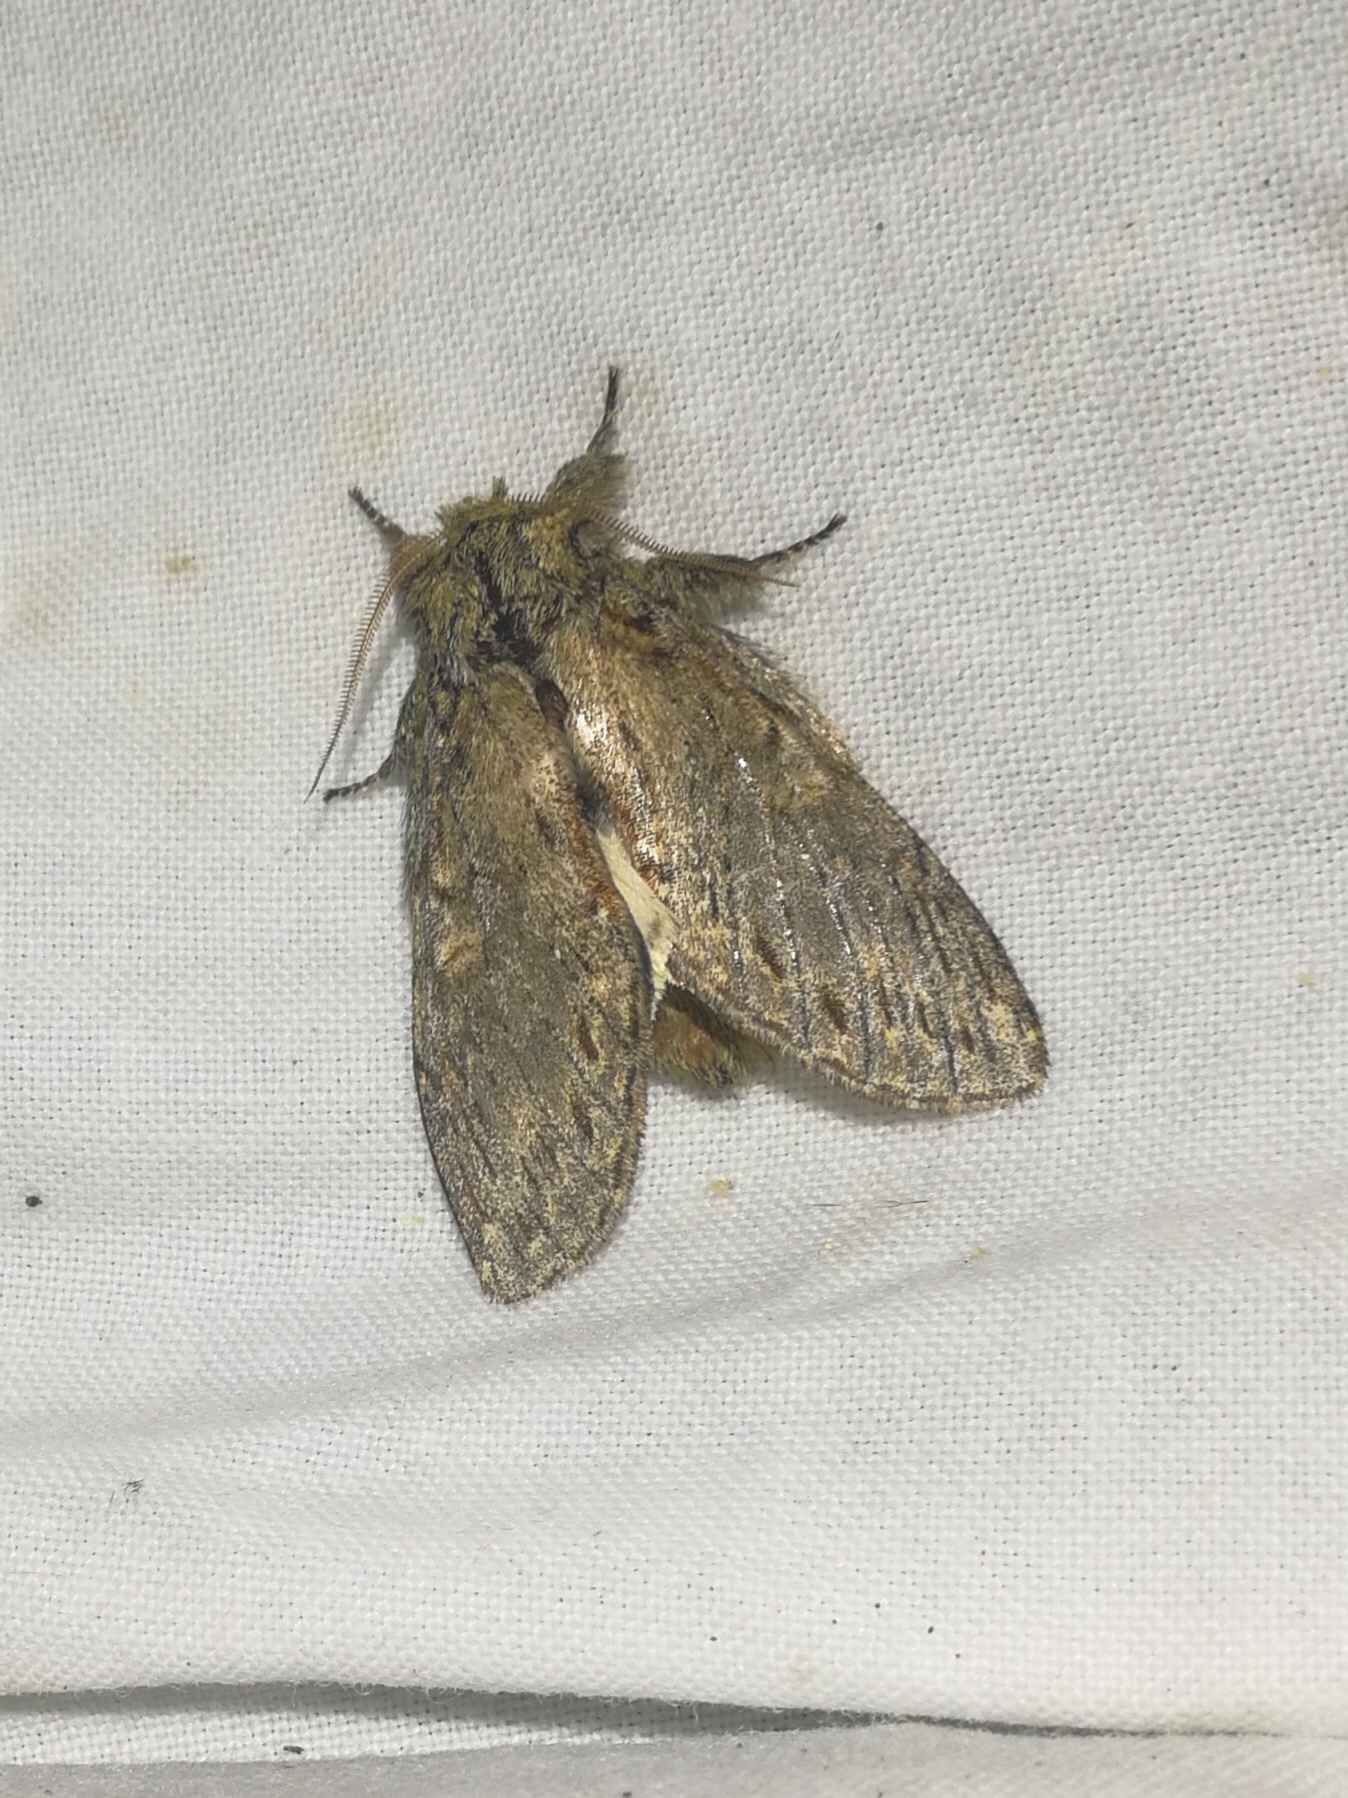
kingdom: Animalia
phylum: Arthropoda
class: Insecta
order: Lepidoptera
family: Notodontidae
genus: Peridea
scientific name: Peridea anceps
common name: Great prominent
